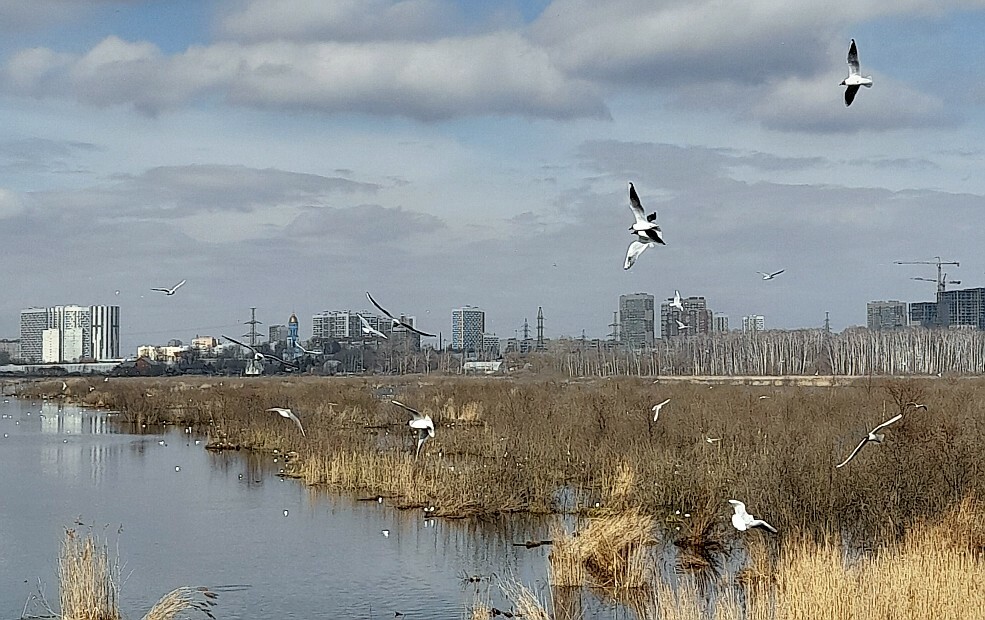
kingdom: Animalia
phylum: Chordata
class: Aves
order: Charadriiformes
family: Laridae
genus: Chroicocephalus
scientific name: Chroicocephalus ridibundus
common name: Black-headed gull
